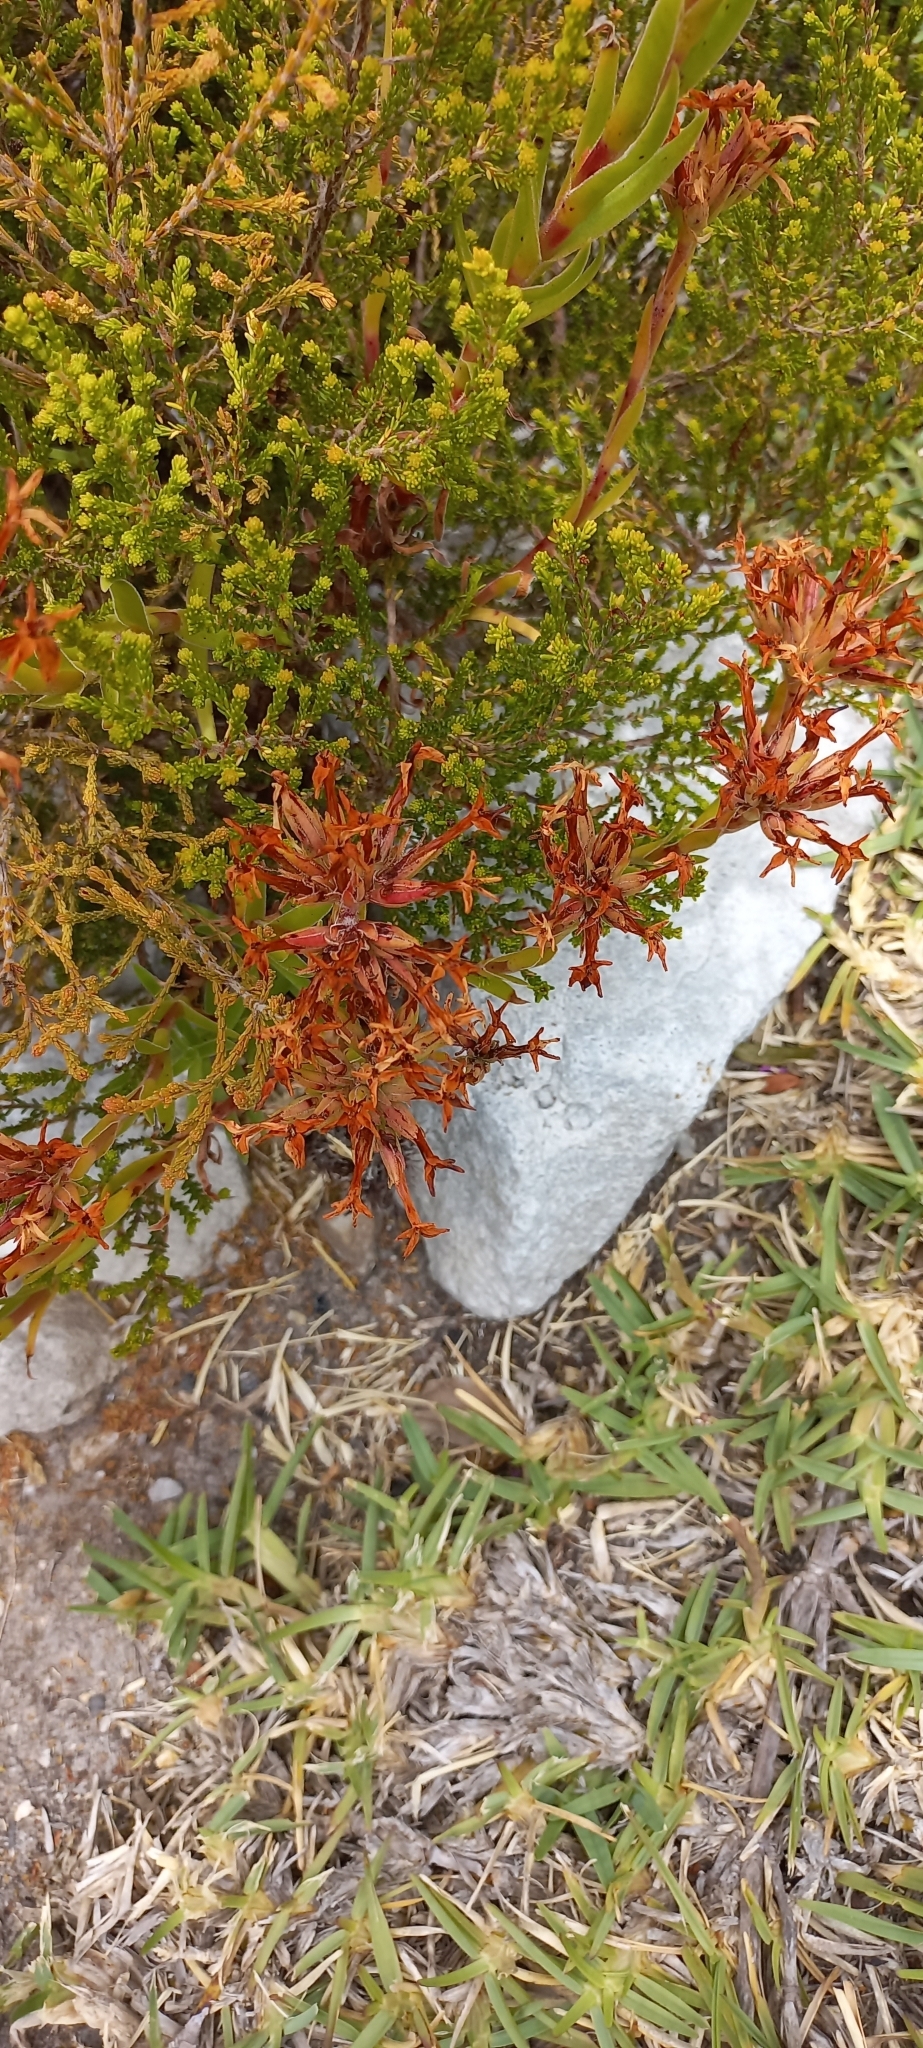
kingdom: Plantae
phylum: Tracheophyta
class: Magnoliopsida
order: Saxifragales
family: Crassulaceae
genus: Crassula
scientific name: Crassula fascicularis
